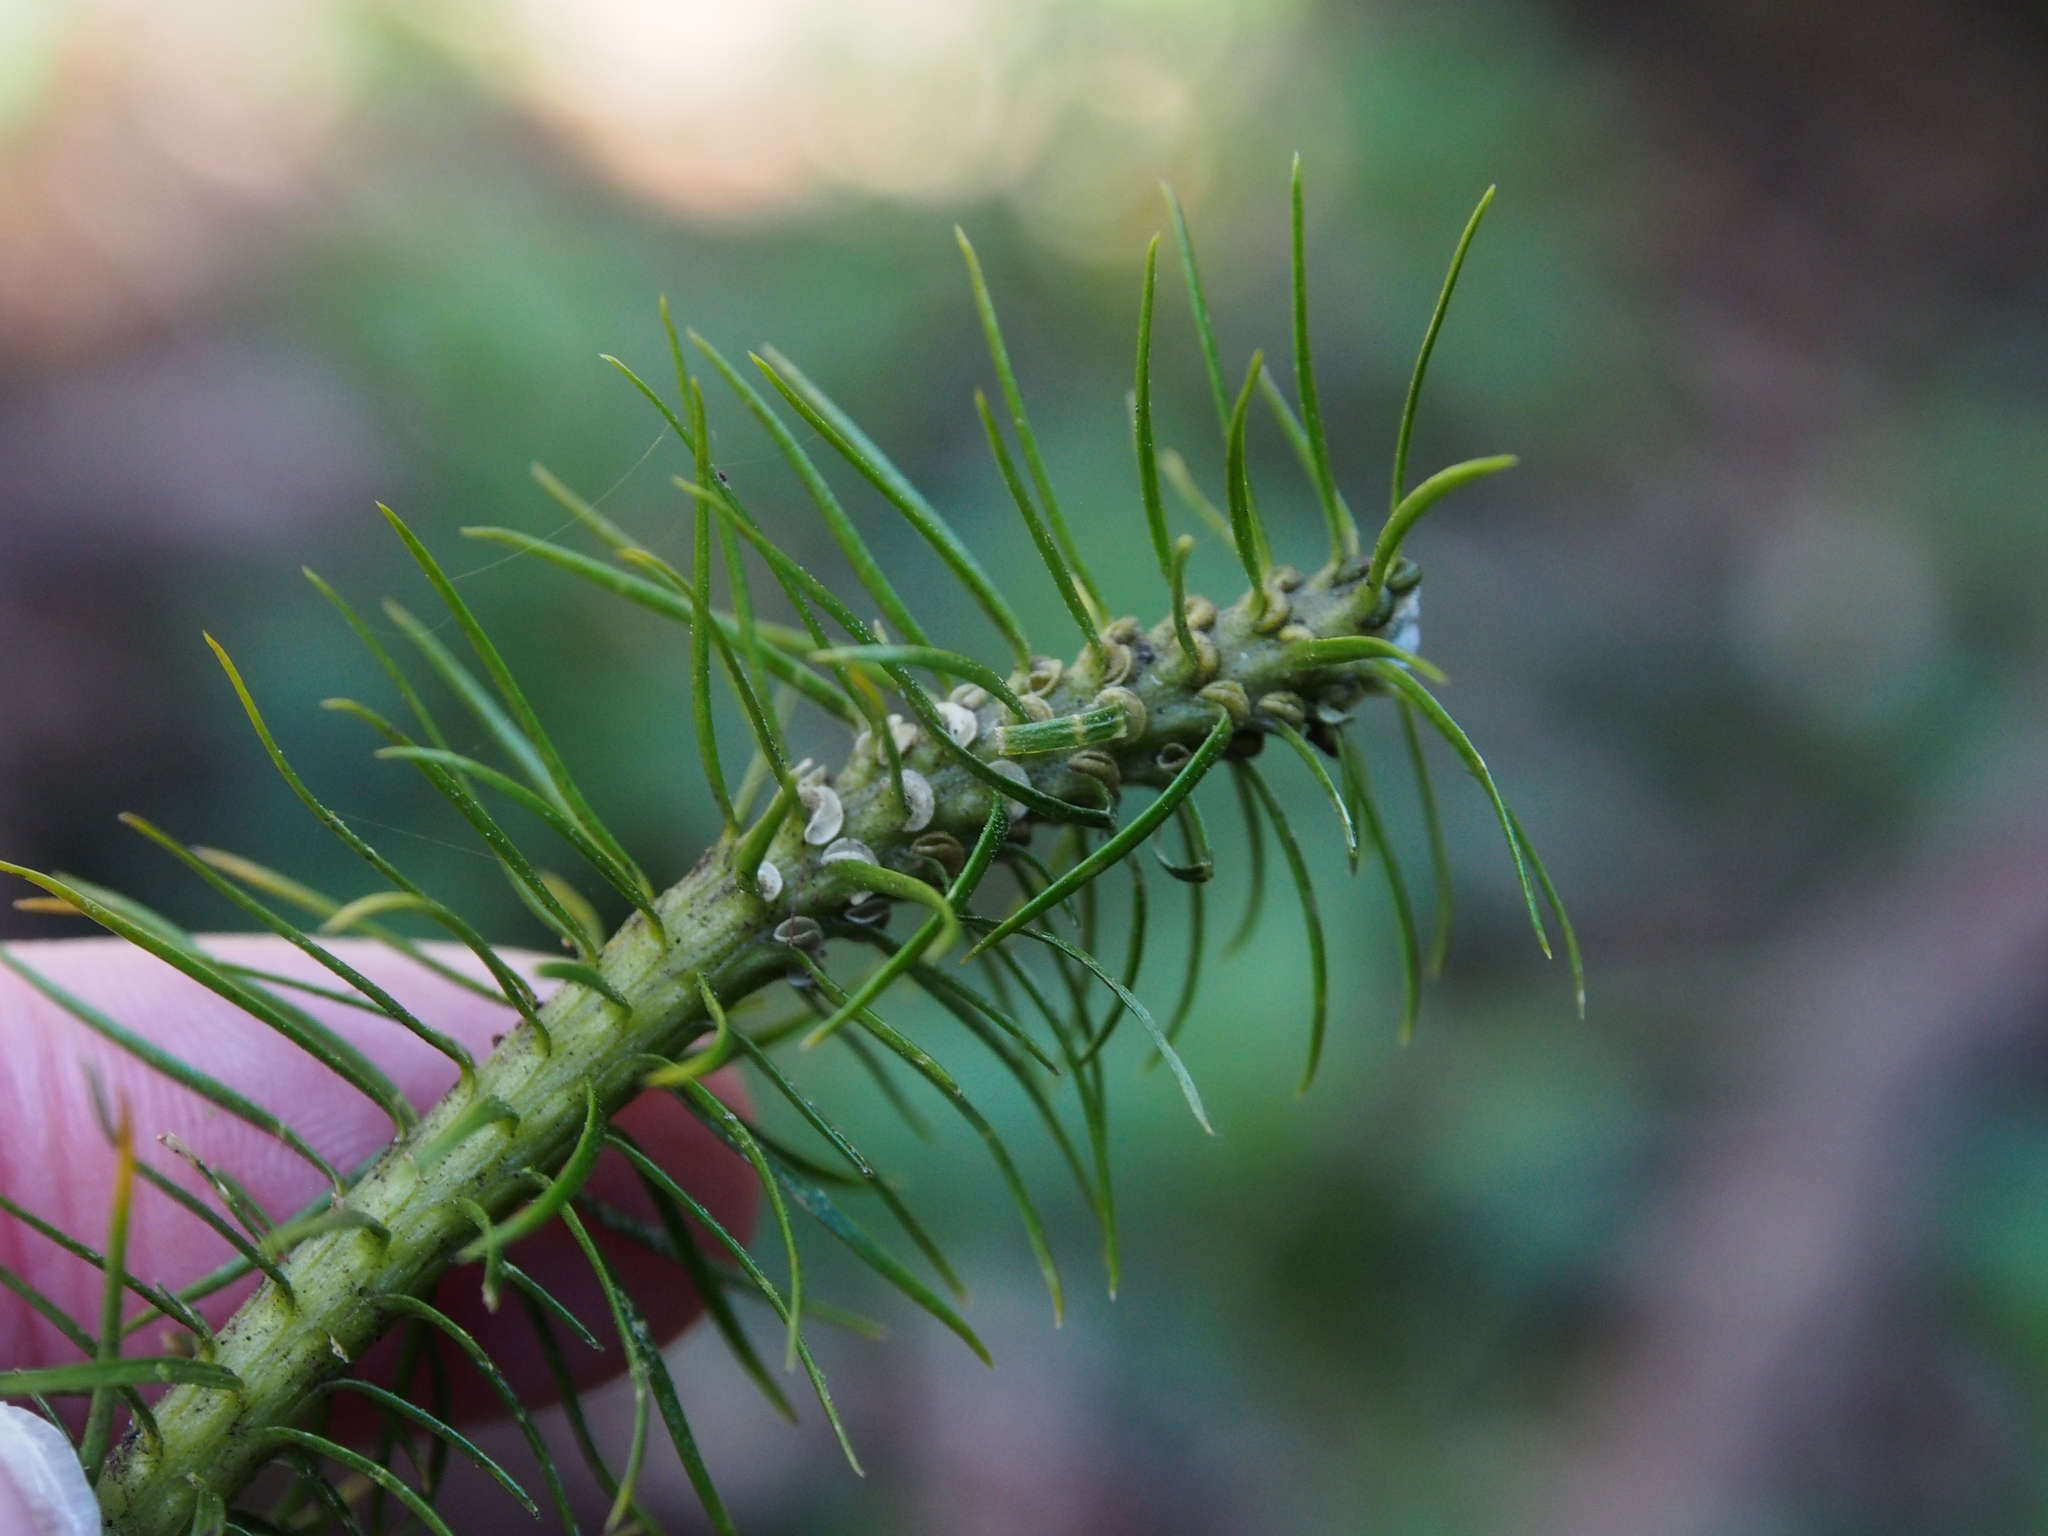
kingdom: Plantae
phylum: Tracheophyta
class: Lycopodiopsida
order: Lycopodiales
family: Lycopodiaceae
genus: Phlegmariurus
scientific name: Phlegmariurus hippurideus
